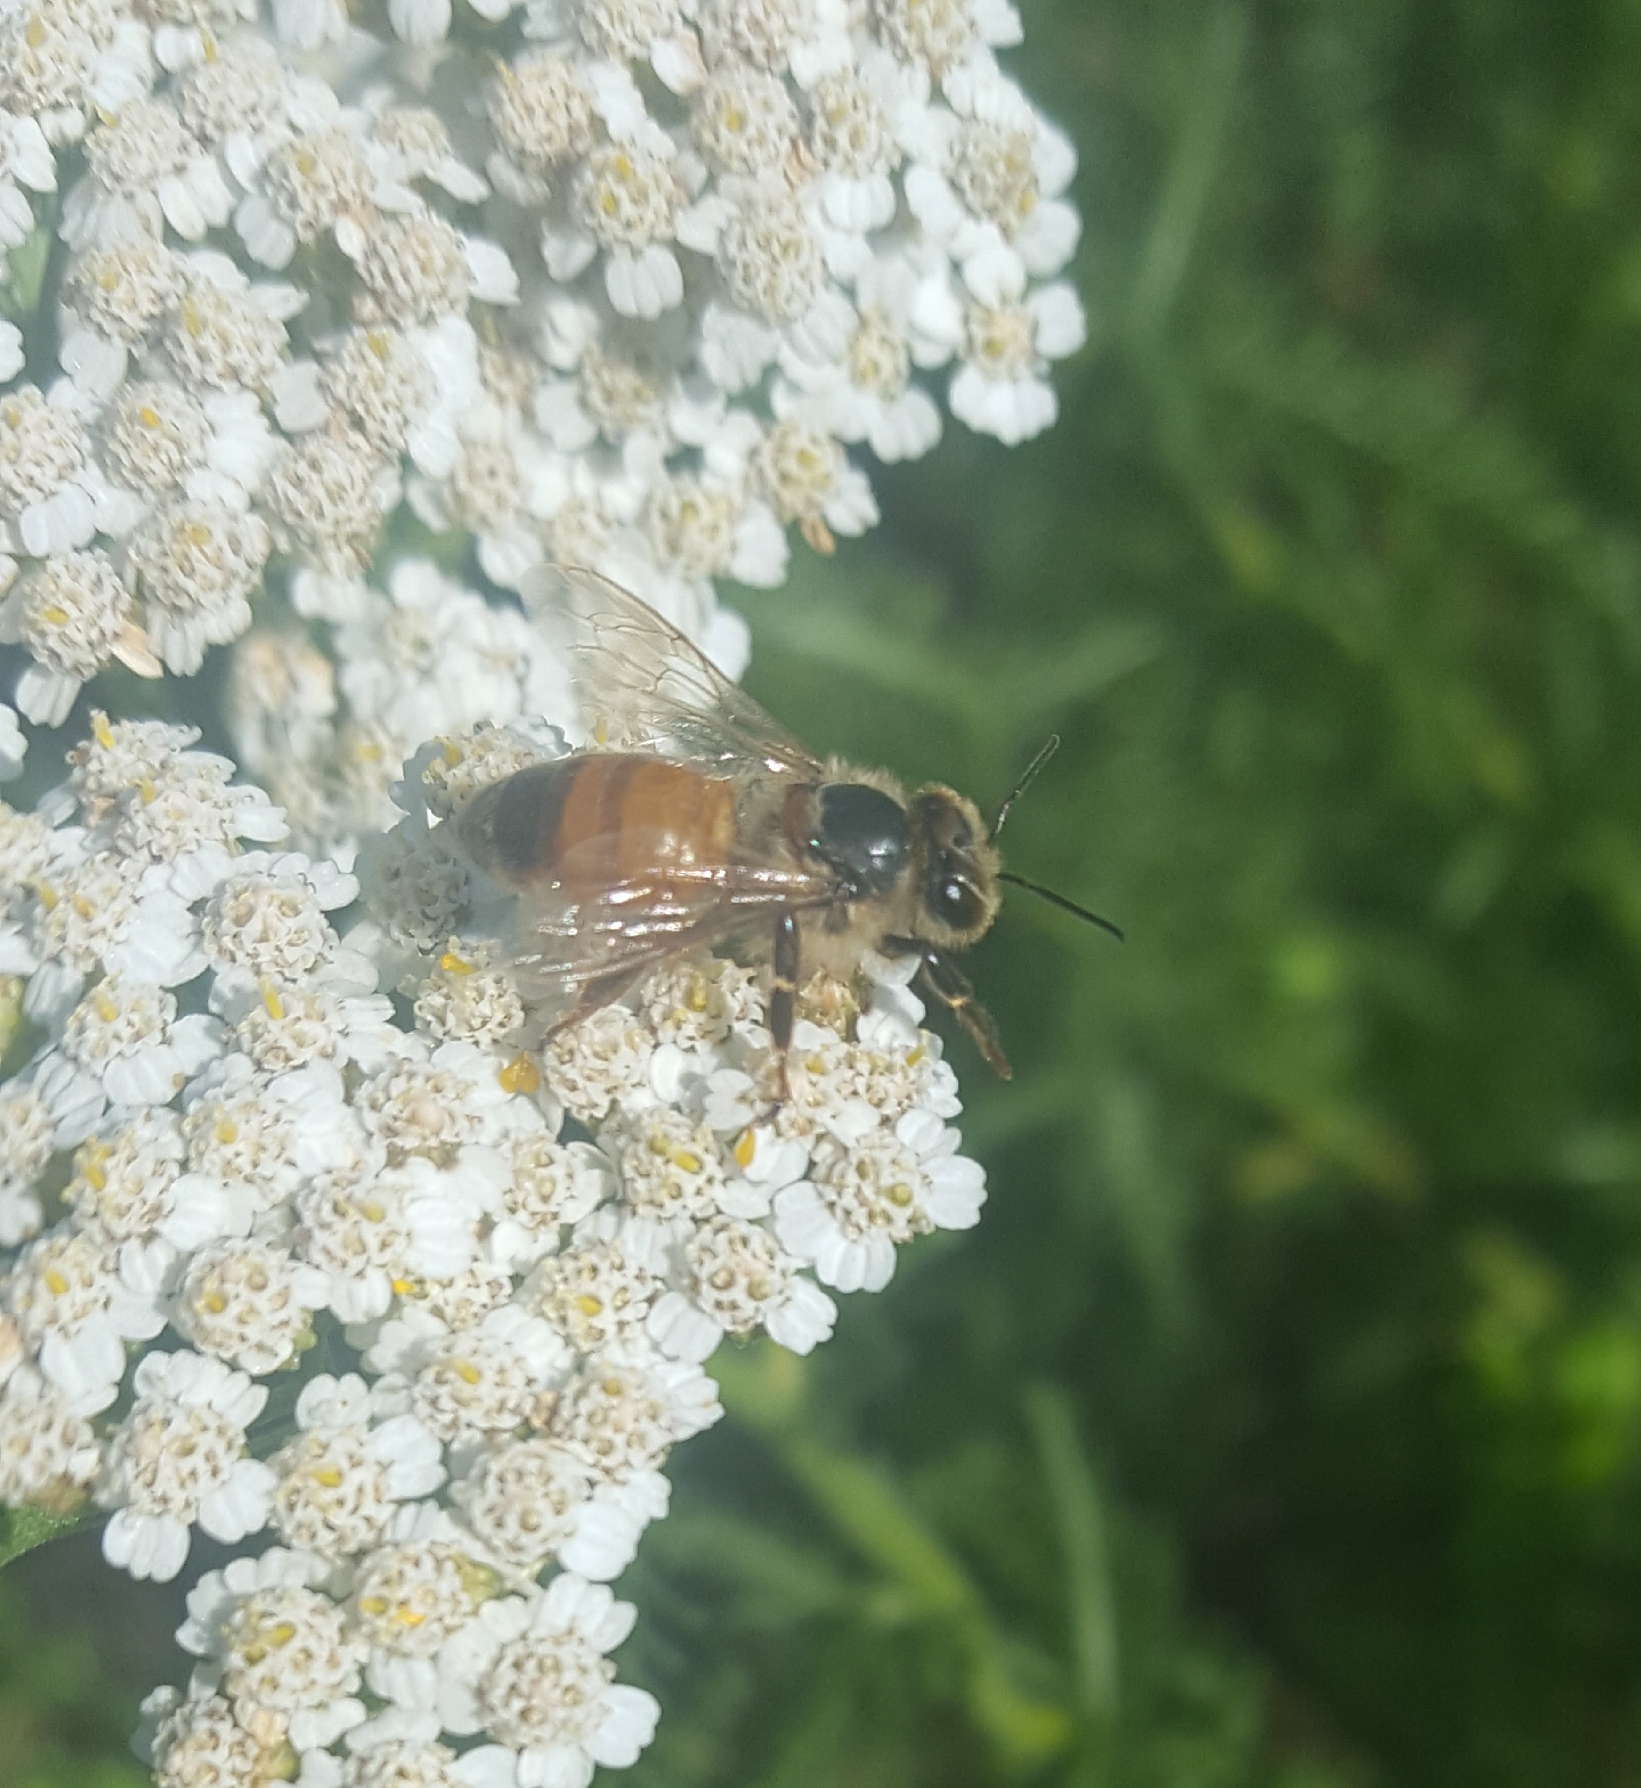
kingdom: Animalia
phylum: Arthropoda
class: Insecta
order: Hymenoptera
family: Apidae
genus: Apis
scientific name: Apis mellifera
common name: Honey bee
